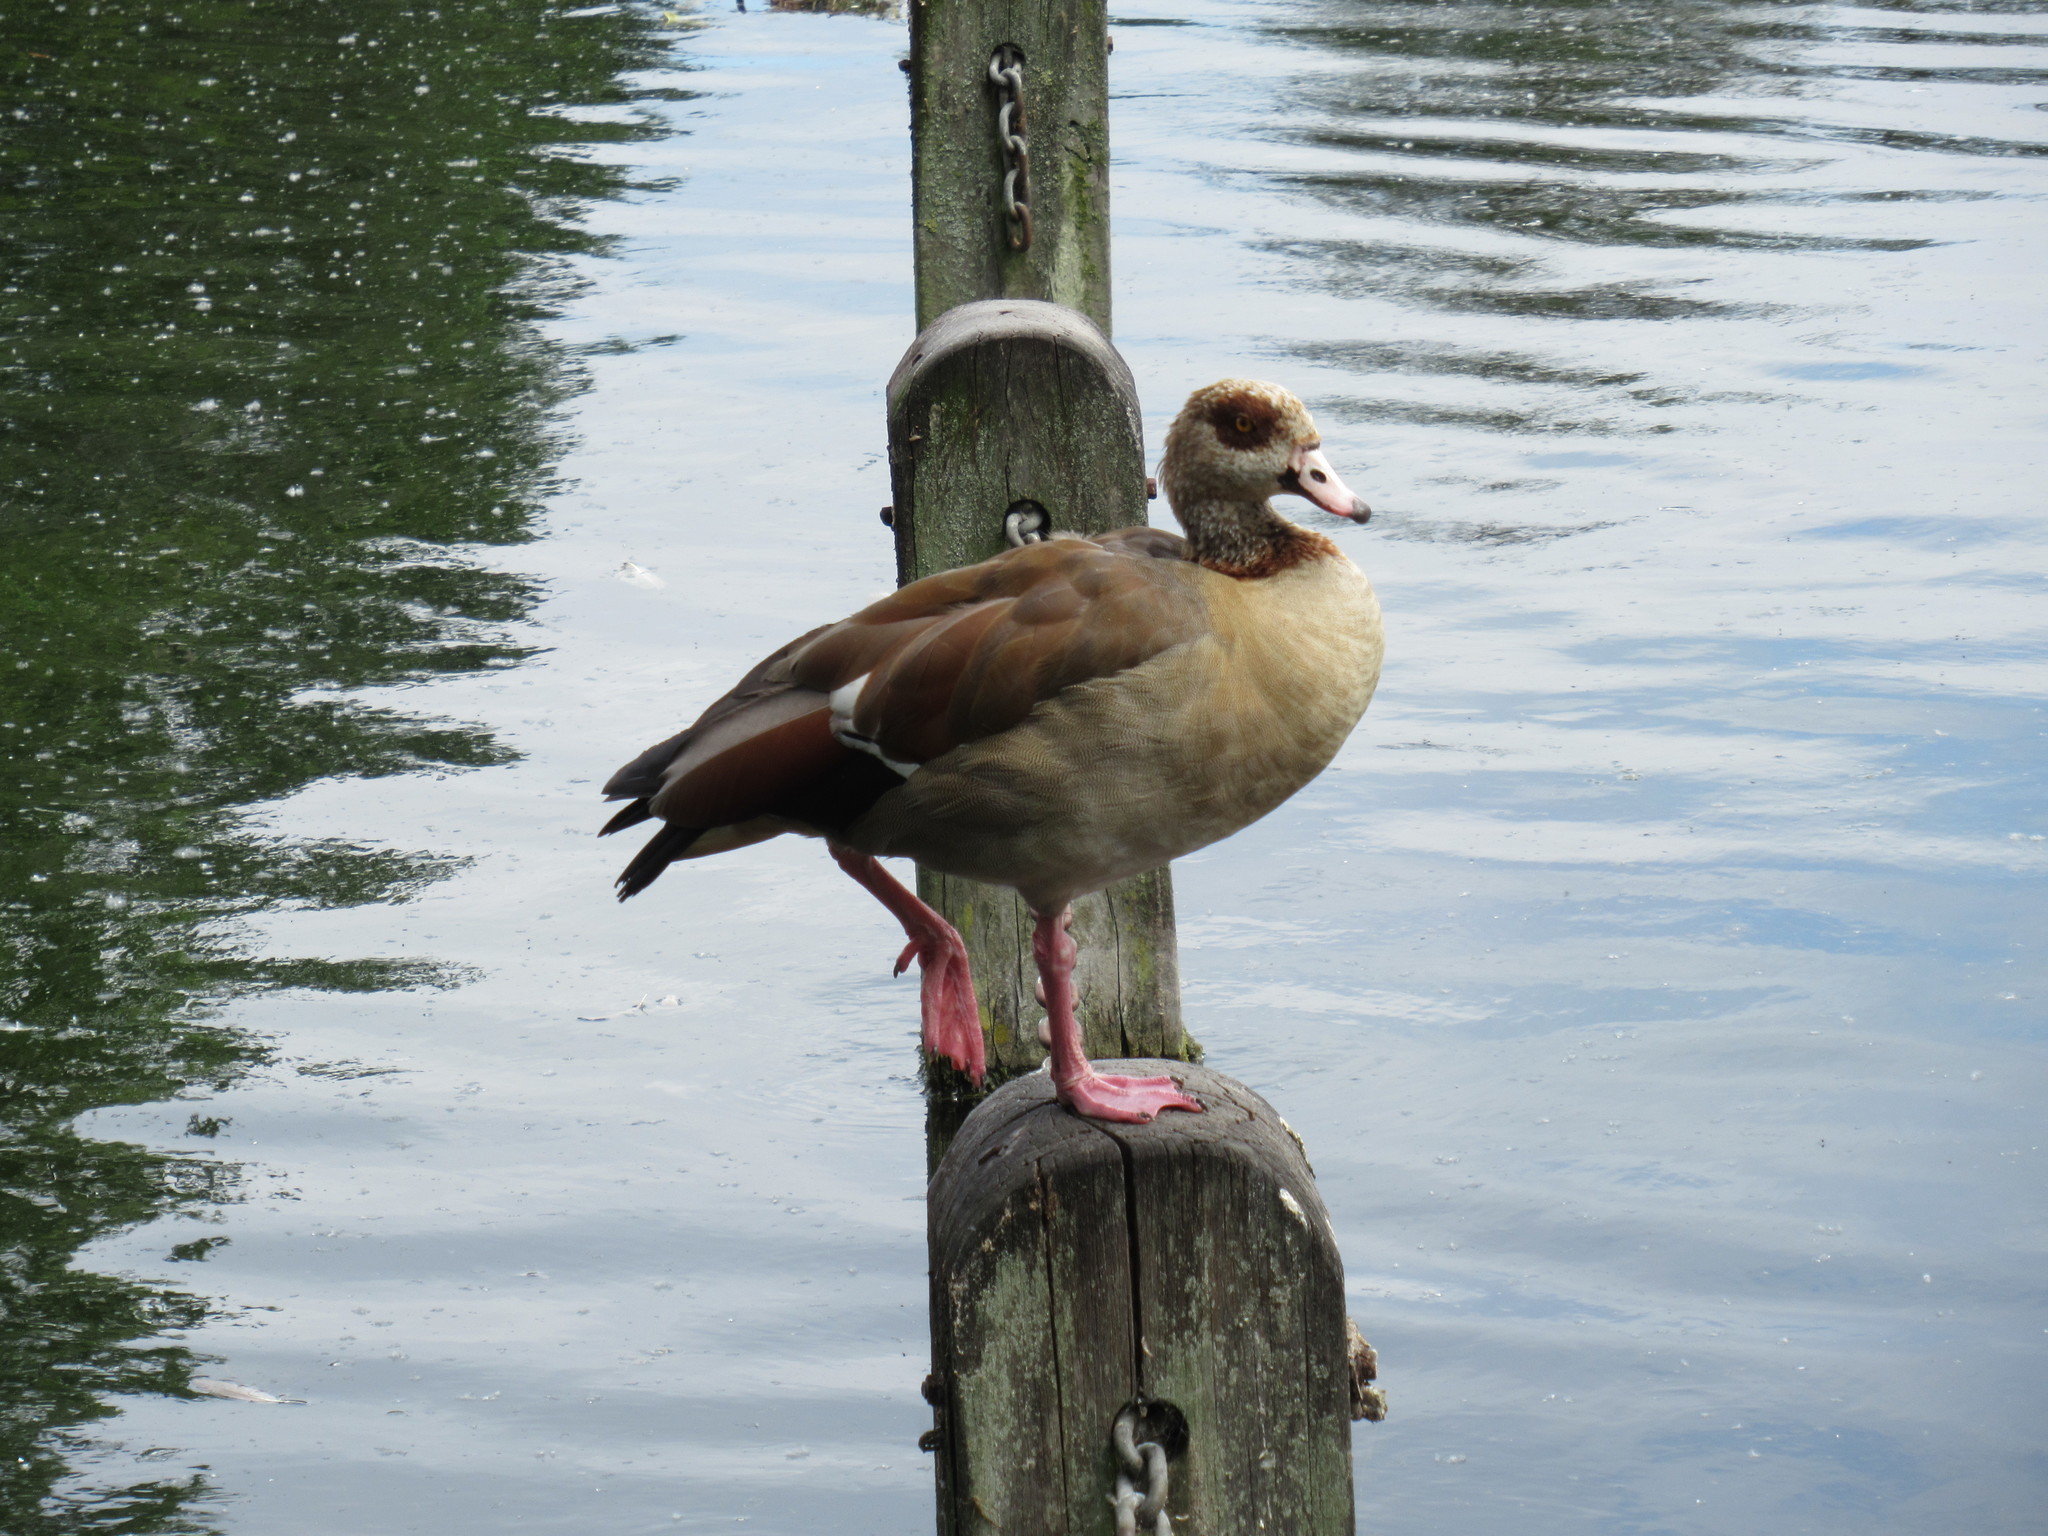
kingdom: Animalia
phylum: Chordata
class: Aves
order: Anseriformes
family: Anatidae
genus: Alopochen
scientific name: Alopochen aegyptiaca
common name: Egyptian goose
